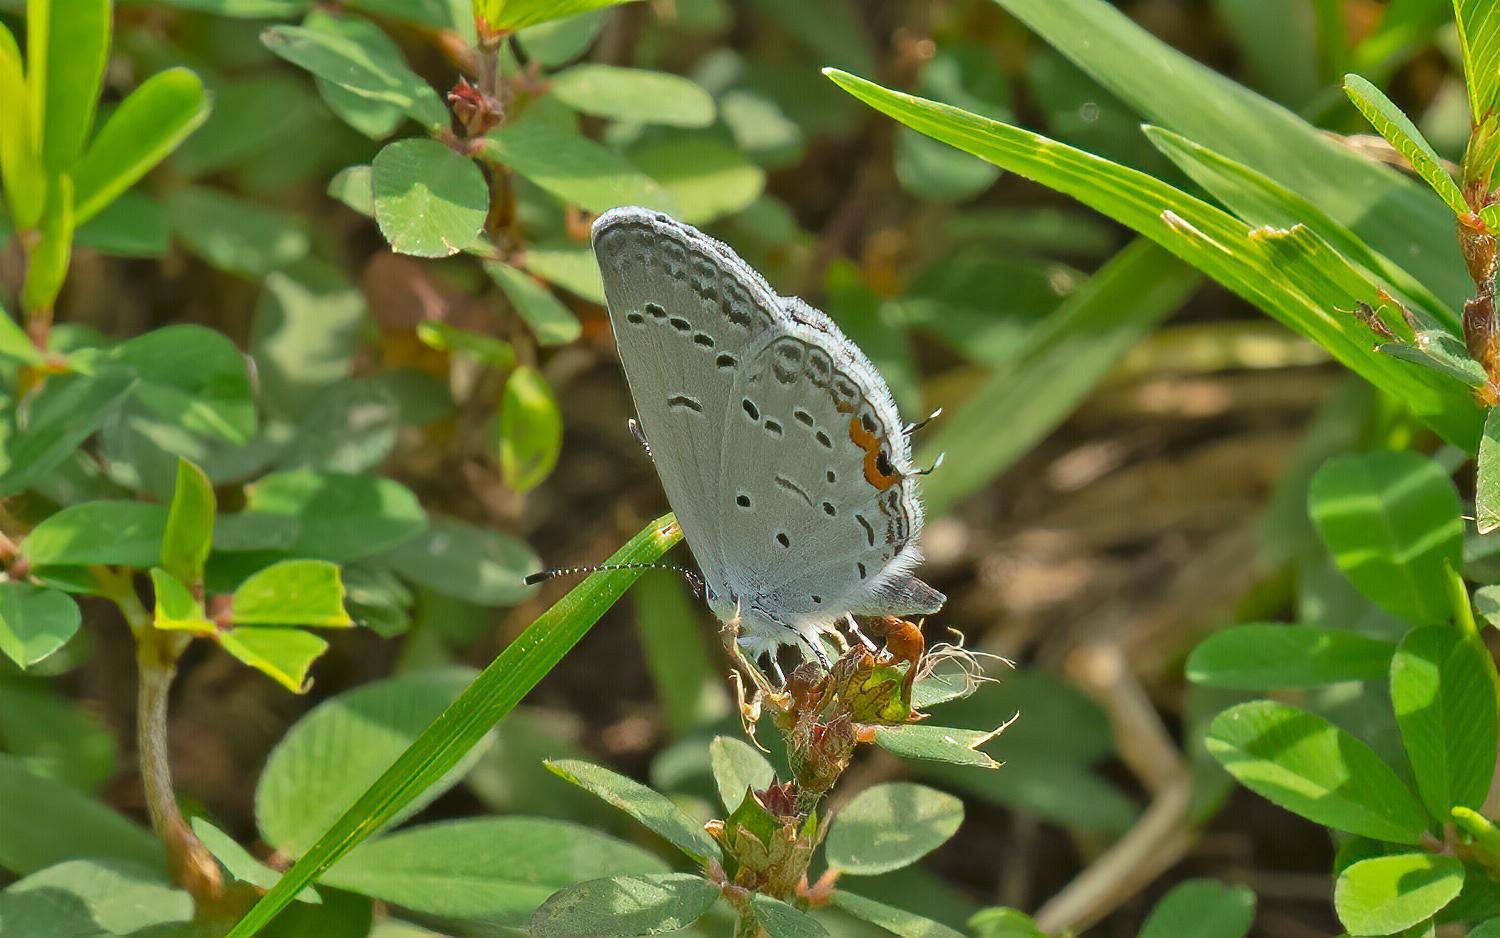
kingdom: Animalia
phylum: Arthropoda
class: Insecta
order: Lepidoptera
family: Lycaenidae
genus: Elkalyce
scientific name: Elkalyce comyntas
